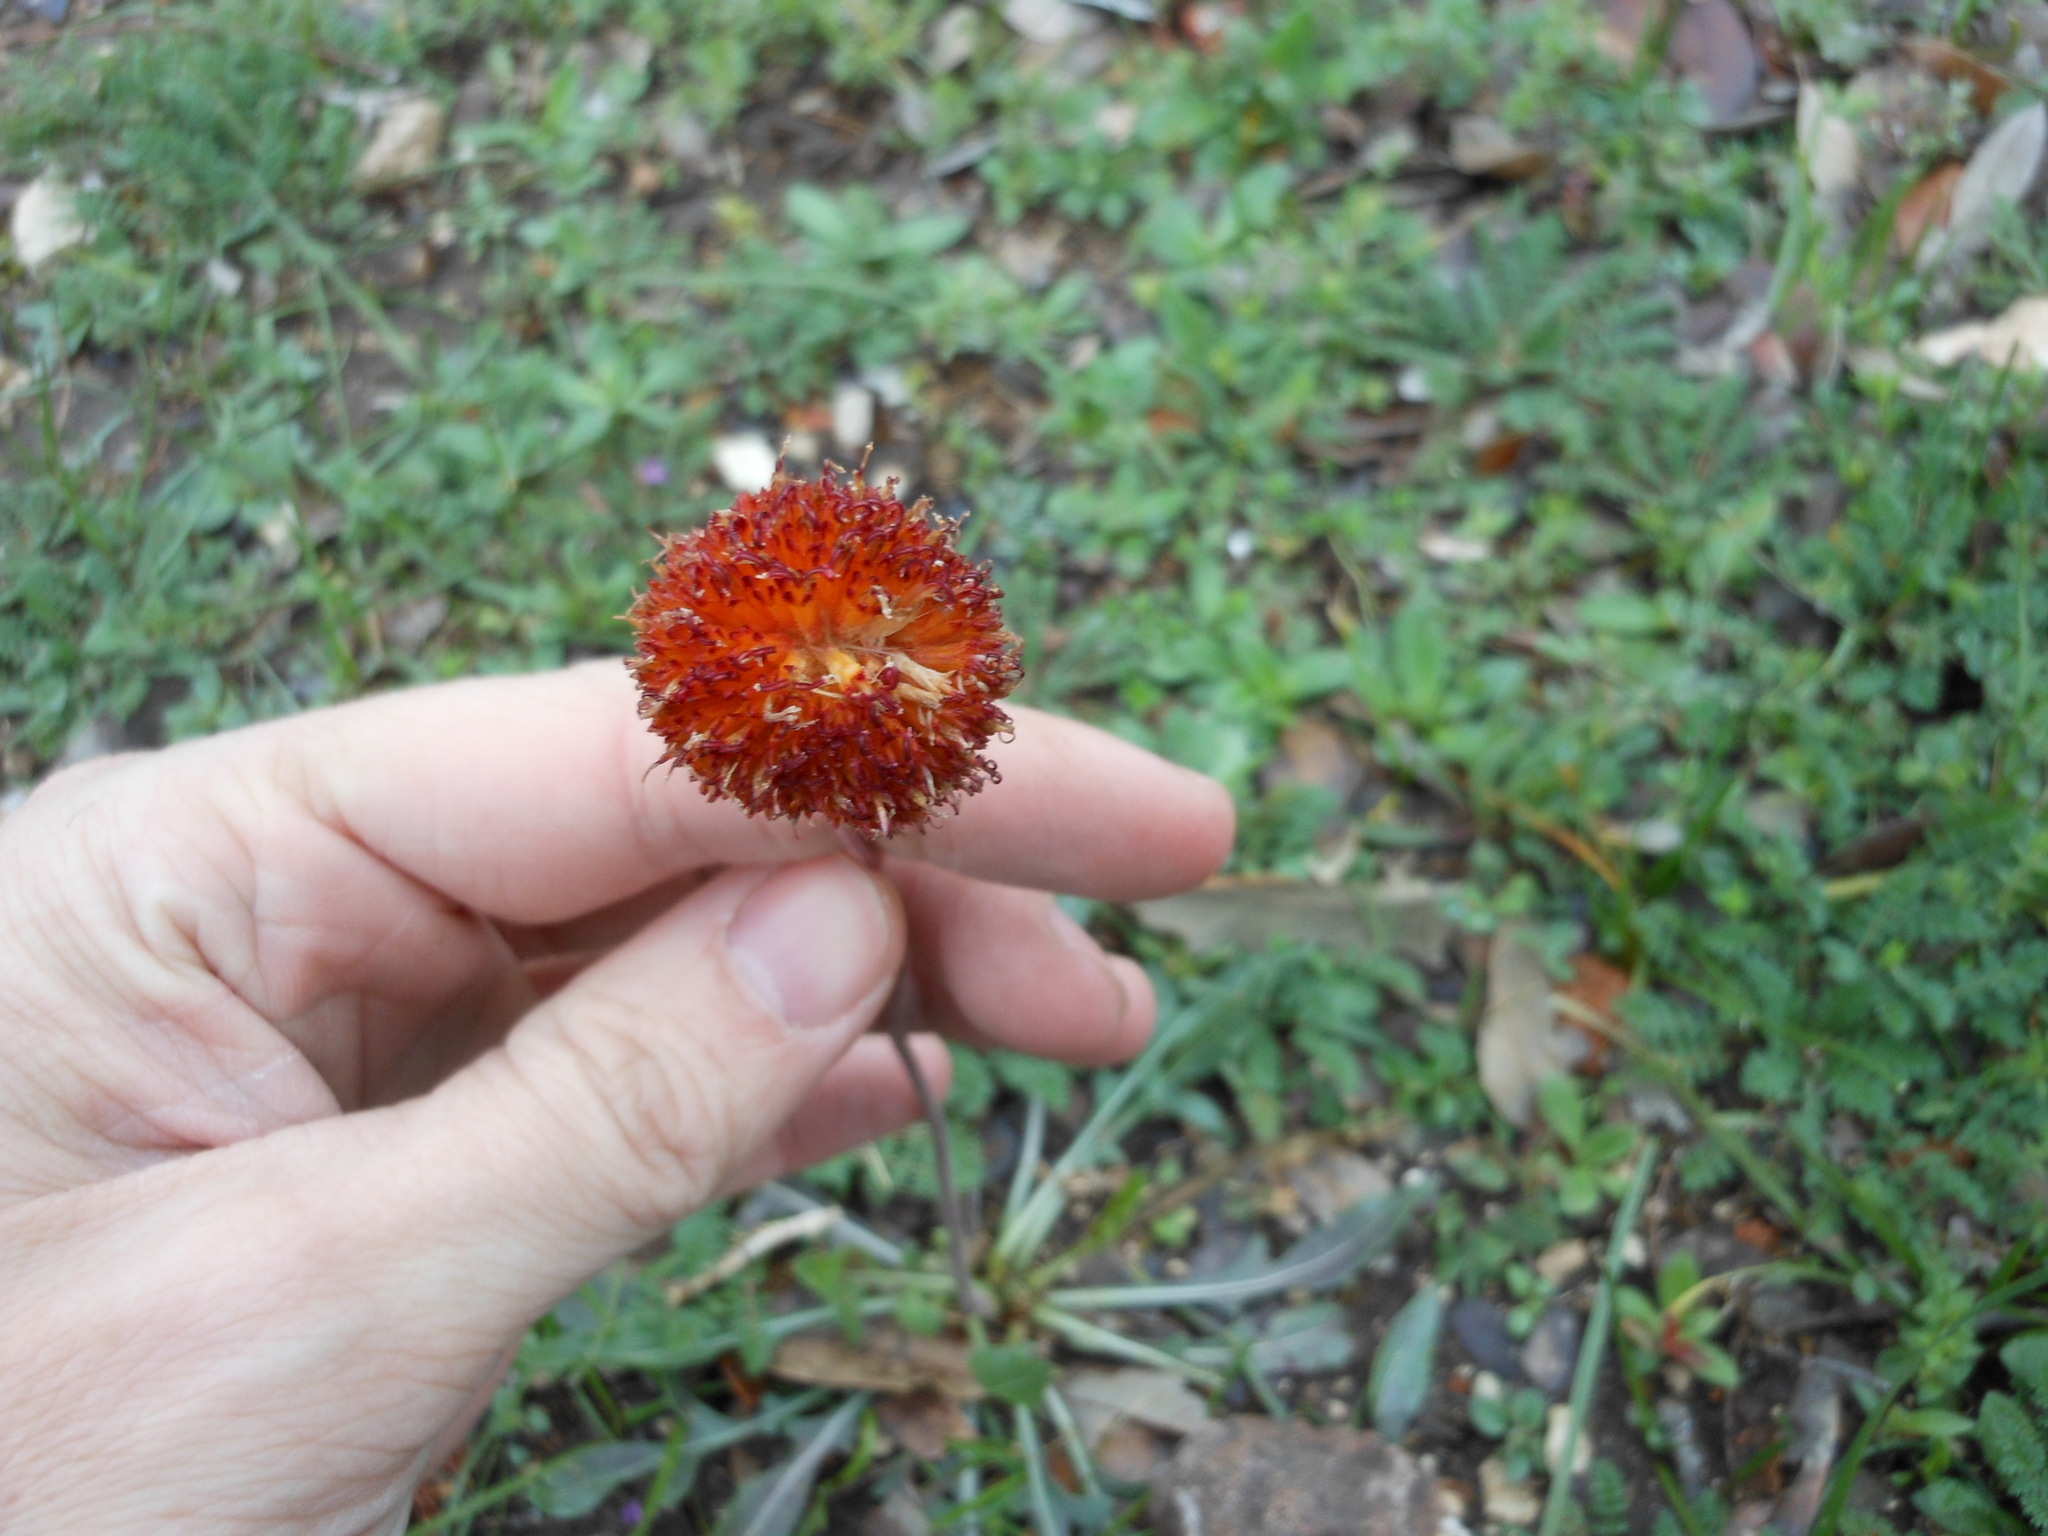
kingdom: Plantae
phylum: Tracheophyta
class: Magnoliopsida
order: Asterales
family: Asteraceae
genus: Gaillardia
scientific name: Gaillardia suavis
